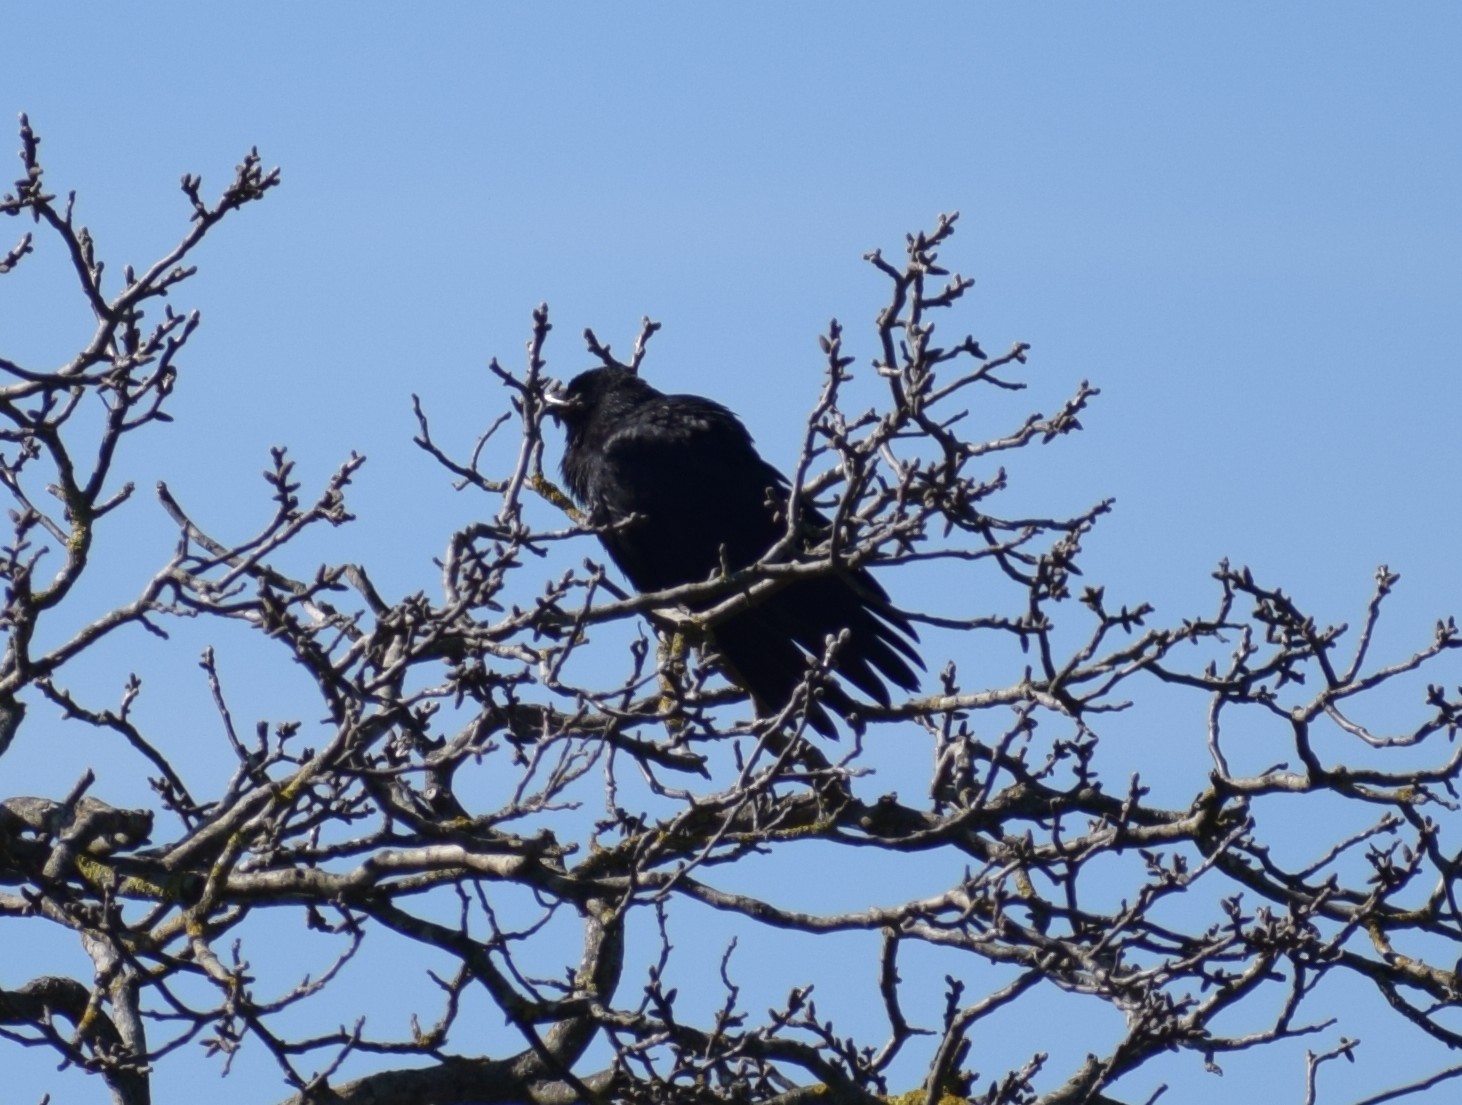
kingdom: Animalia
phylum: Chordata
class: Aves
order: Passeriformes
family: Corvidae
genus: Corvus
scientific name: Corvus corone
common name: Carrion crow
